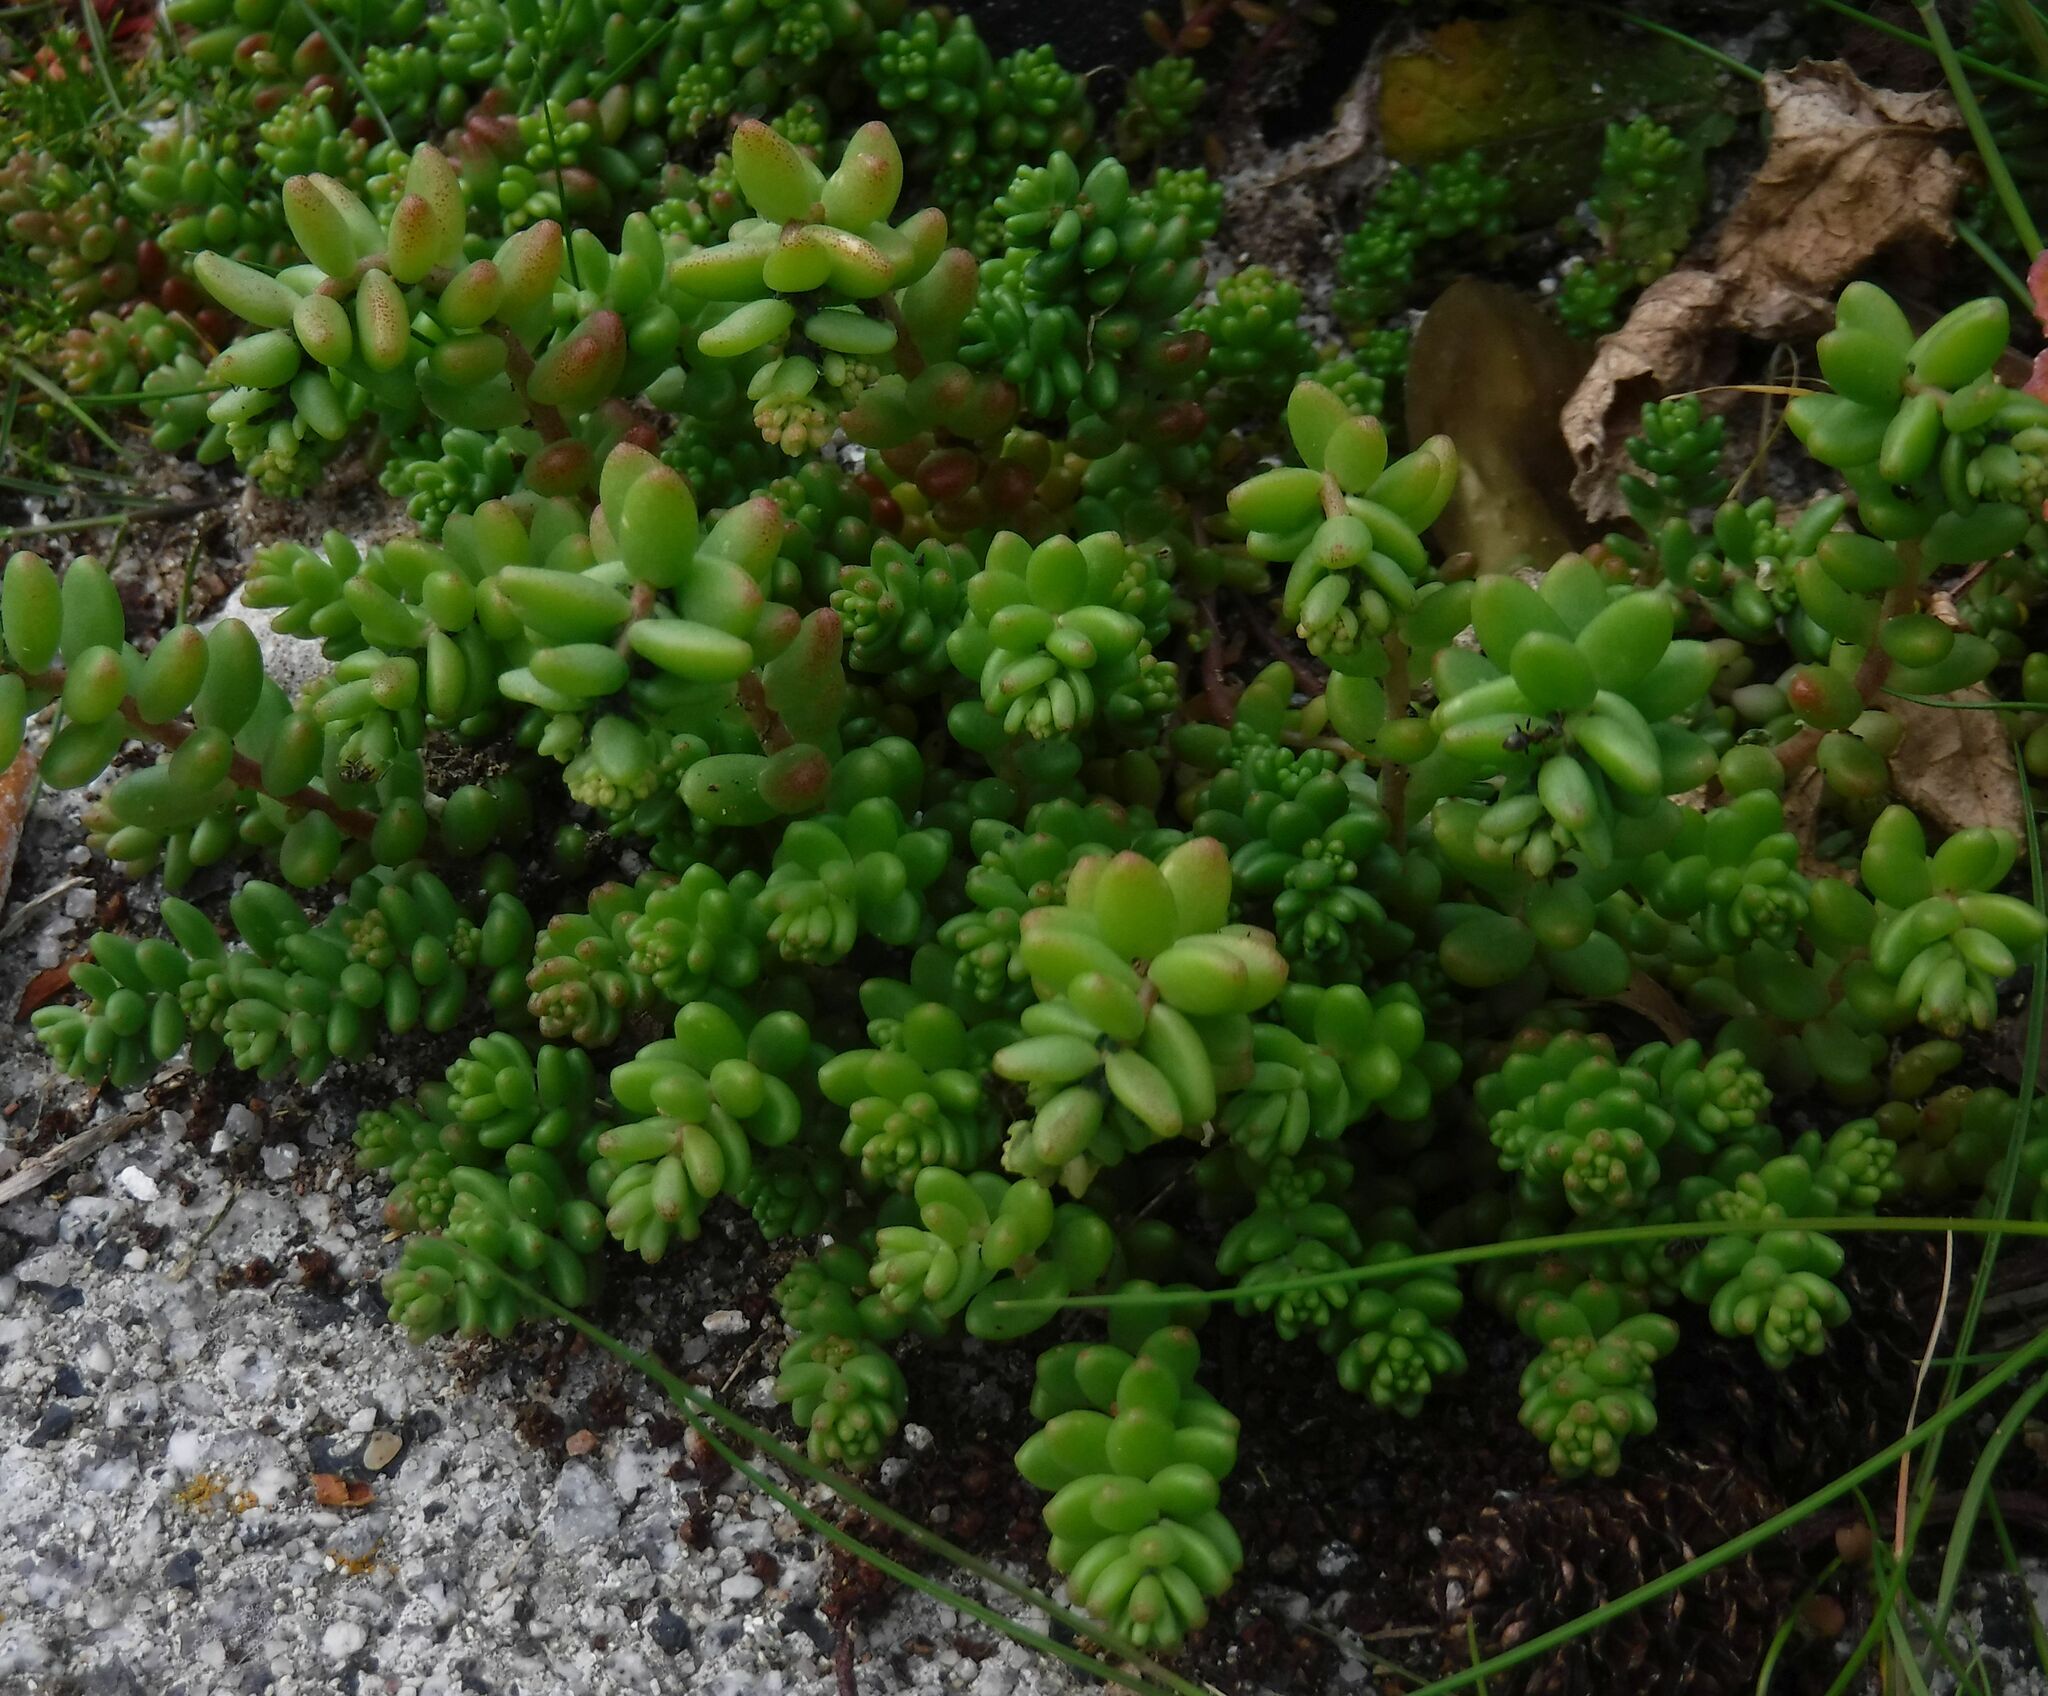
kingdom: Plantae
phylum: Tracheophyta
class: Magnoliopsida
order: Saxifragales
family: Crassulaceae
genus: Sedum
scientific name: Sedum album
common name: White stonecrop
